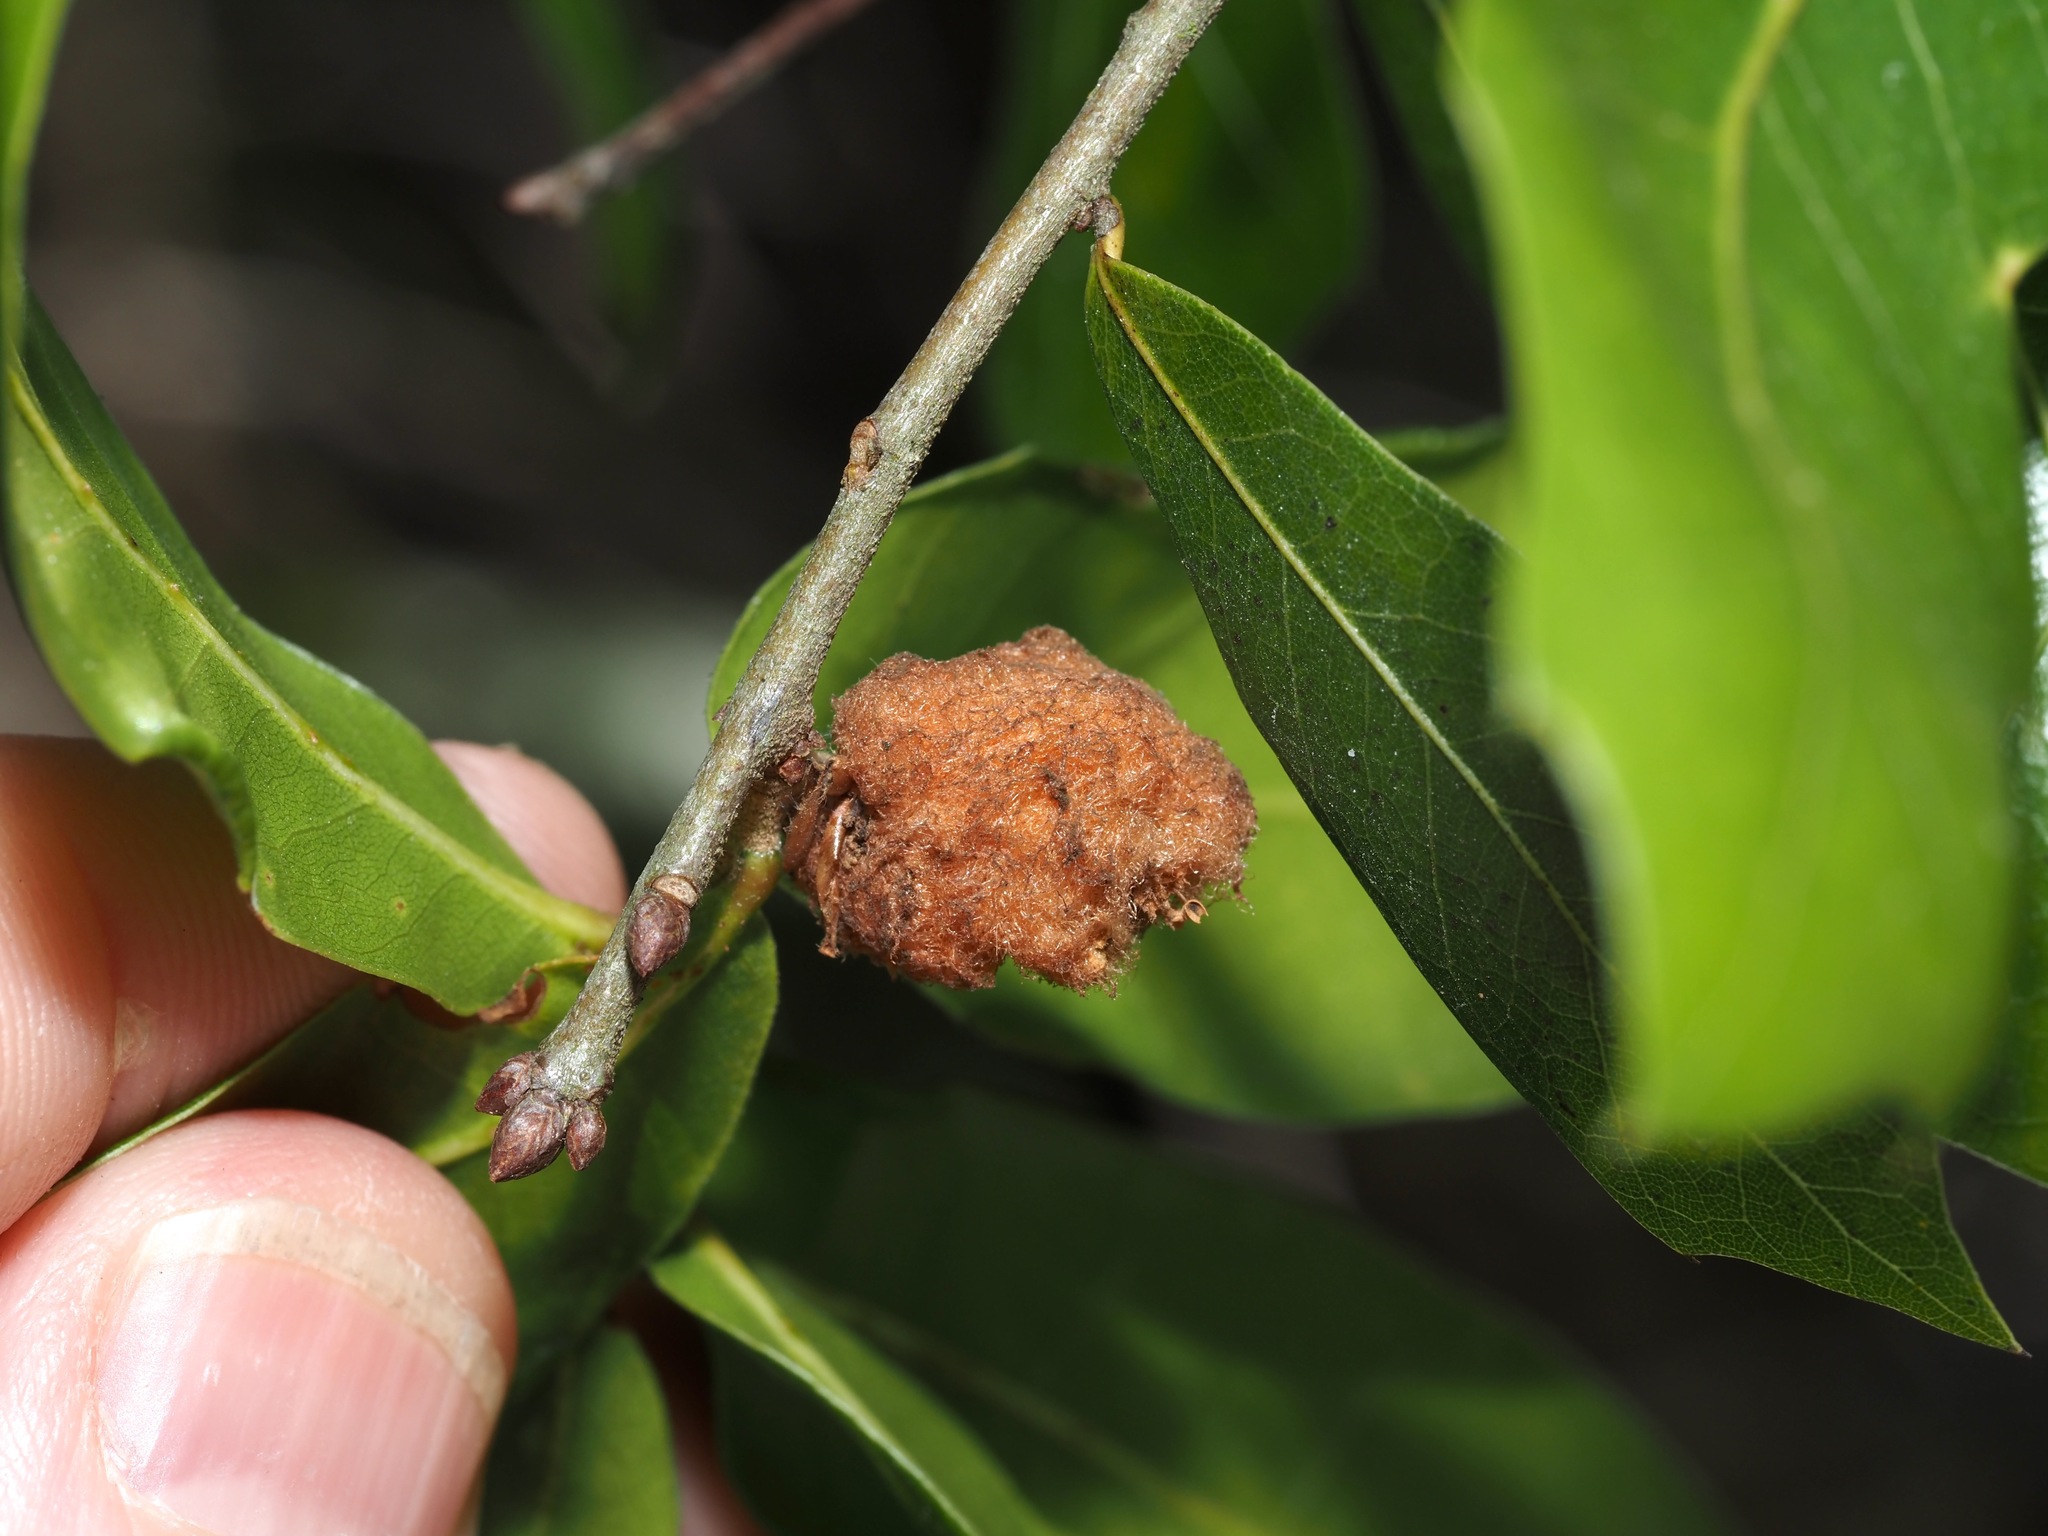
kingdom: Animalia
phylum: Arthropoda
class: Insecta
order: Hymenoptera
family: Cynipidae
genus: Callirhytis
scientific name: Callirhytis
